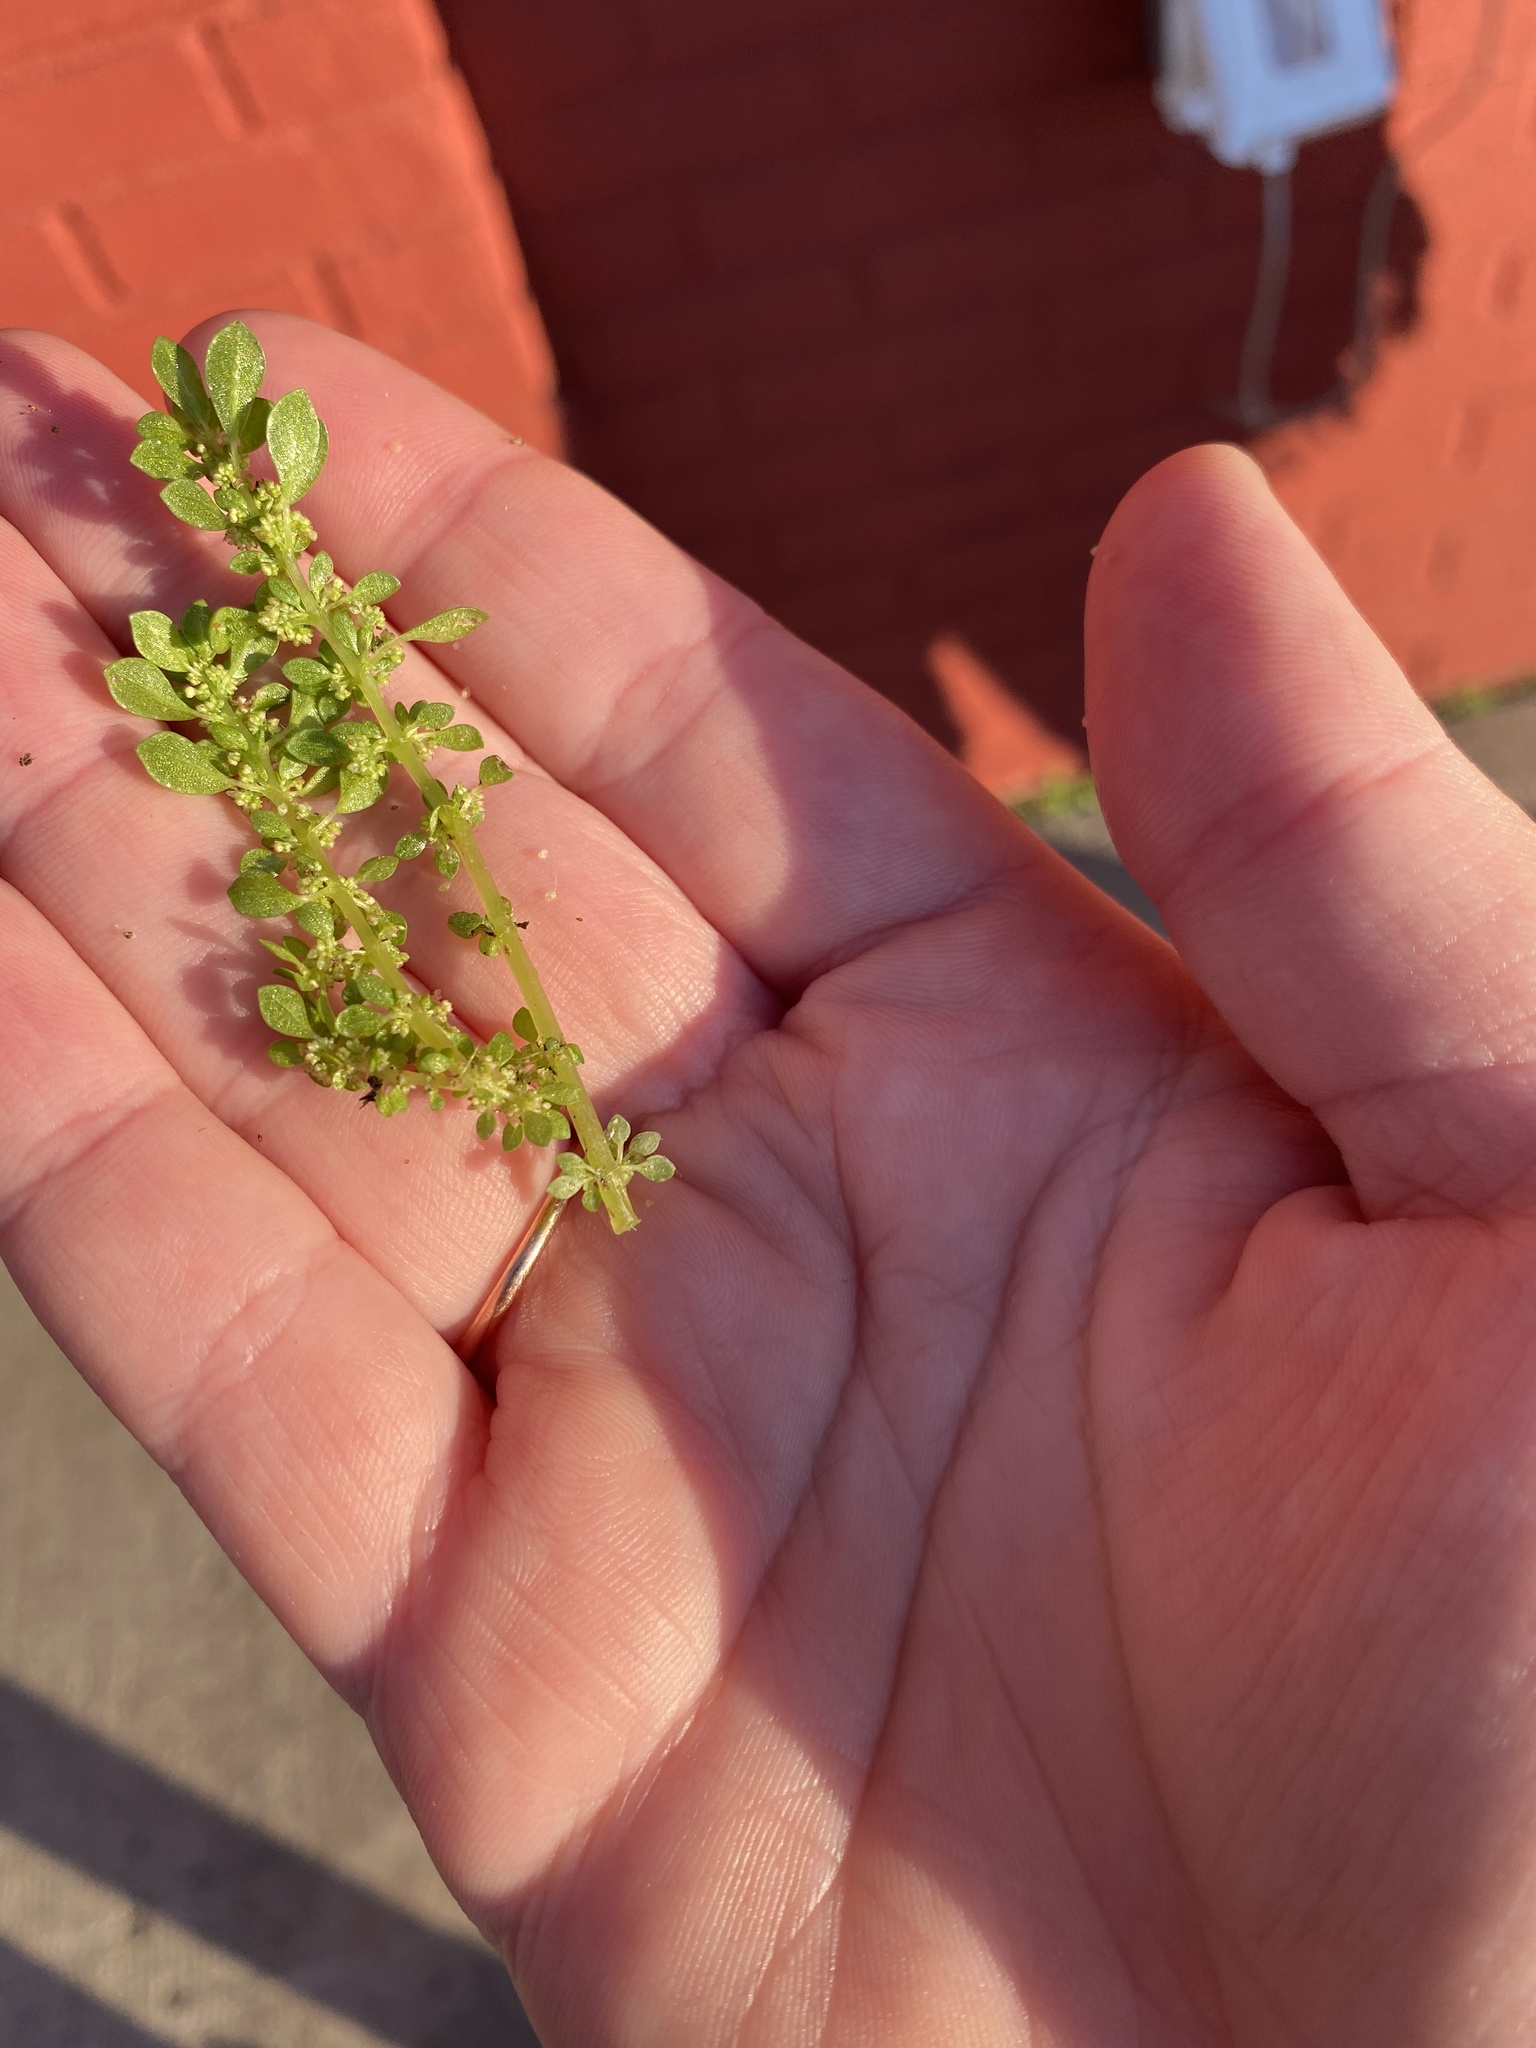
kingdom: Plantae
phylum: Tracheophyta
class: Magnoliopsida
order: Rosales
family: Urticaceae
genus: Pilea
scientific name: Pilea microphylla
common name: Artillery-plant
